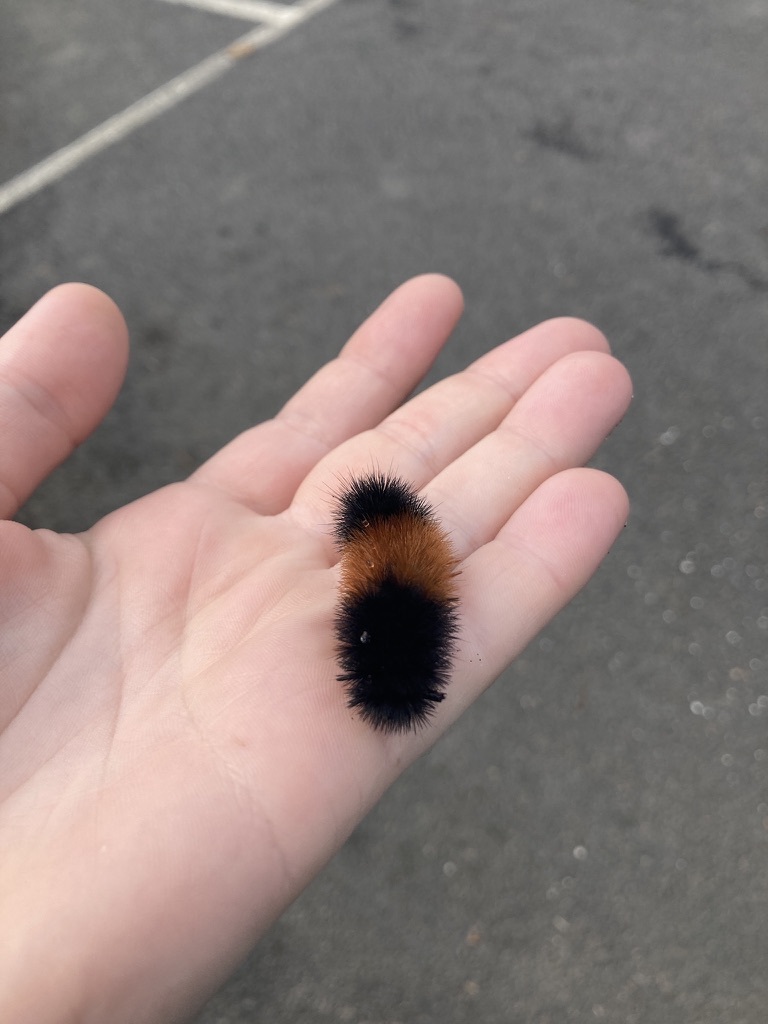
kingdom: Animalia
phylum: Arthropoda
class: Insecta
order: Lepidoptera
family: Erebidae
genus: Pyrrharctia
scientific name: Pyrrharctia isabella
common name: Isabella tiger moth
